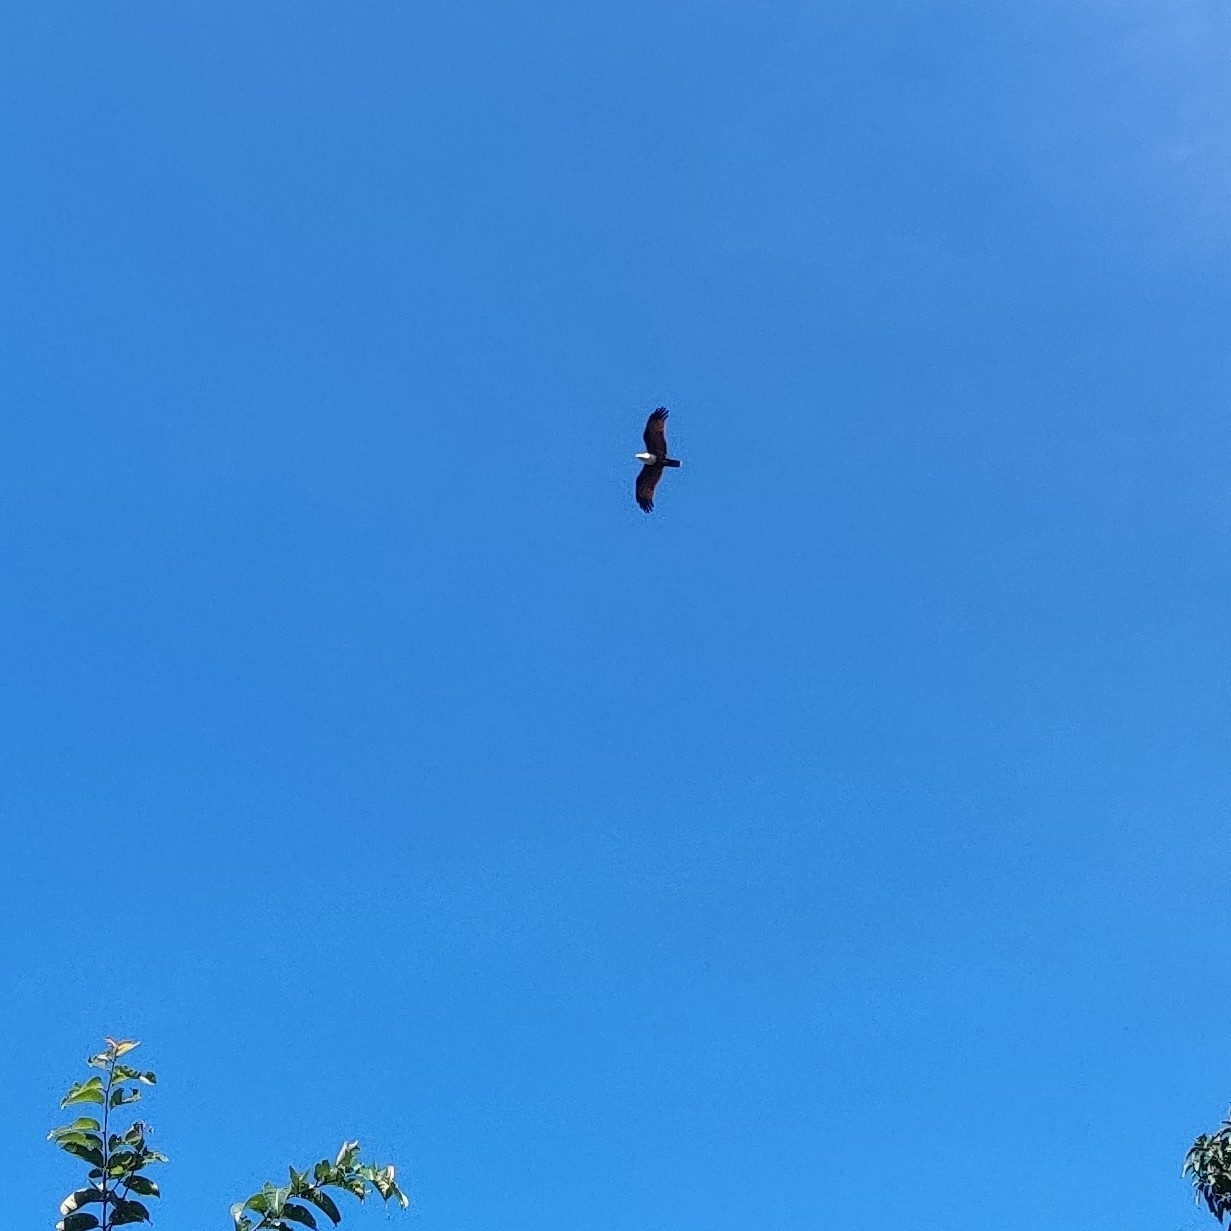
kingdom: Animalia
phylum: Chordata
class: Aves
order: Accipitriformes
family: Accipitridae
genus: Haliastur
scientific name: Haliastur indus
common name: Brahminy kite
